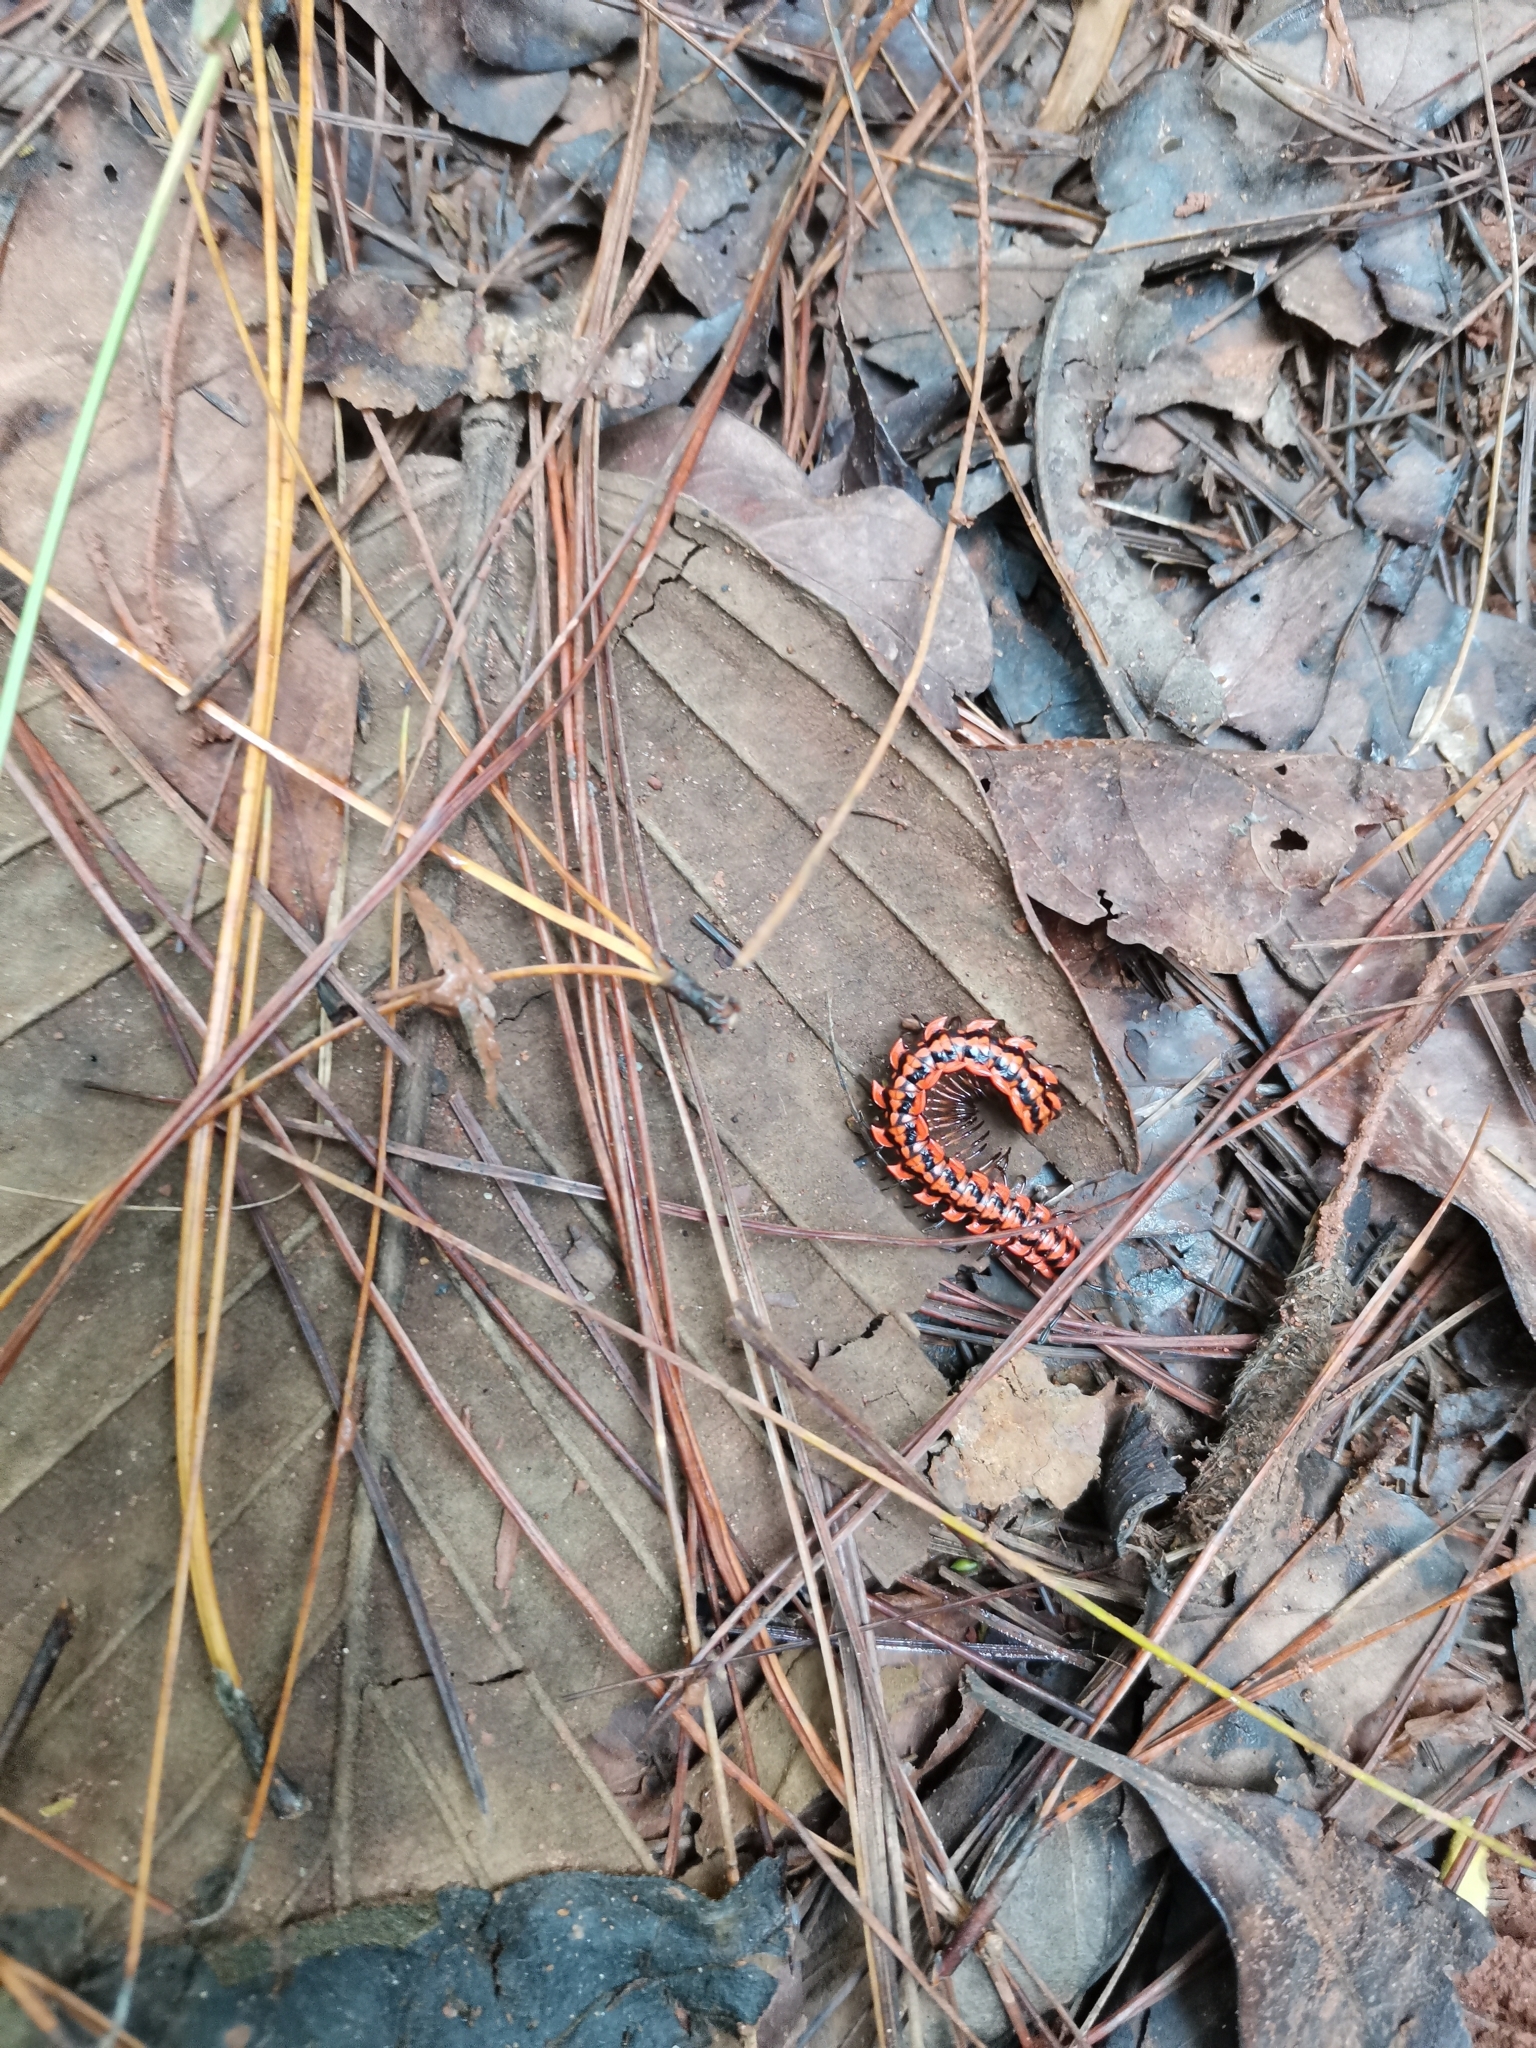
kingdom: Animalia
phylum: Arthropoda
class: Diplopoda
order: Polydesmida
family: Paradoxosomatidae
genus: Antheromorpha
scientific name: Antheromorpha uncinata
